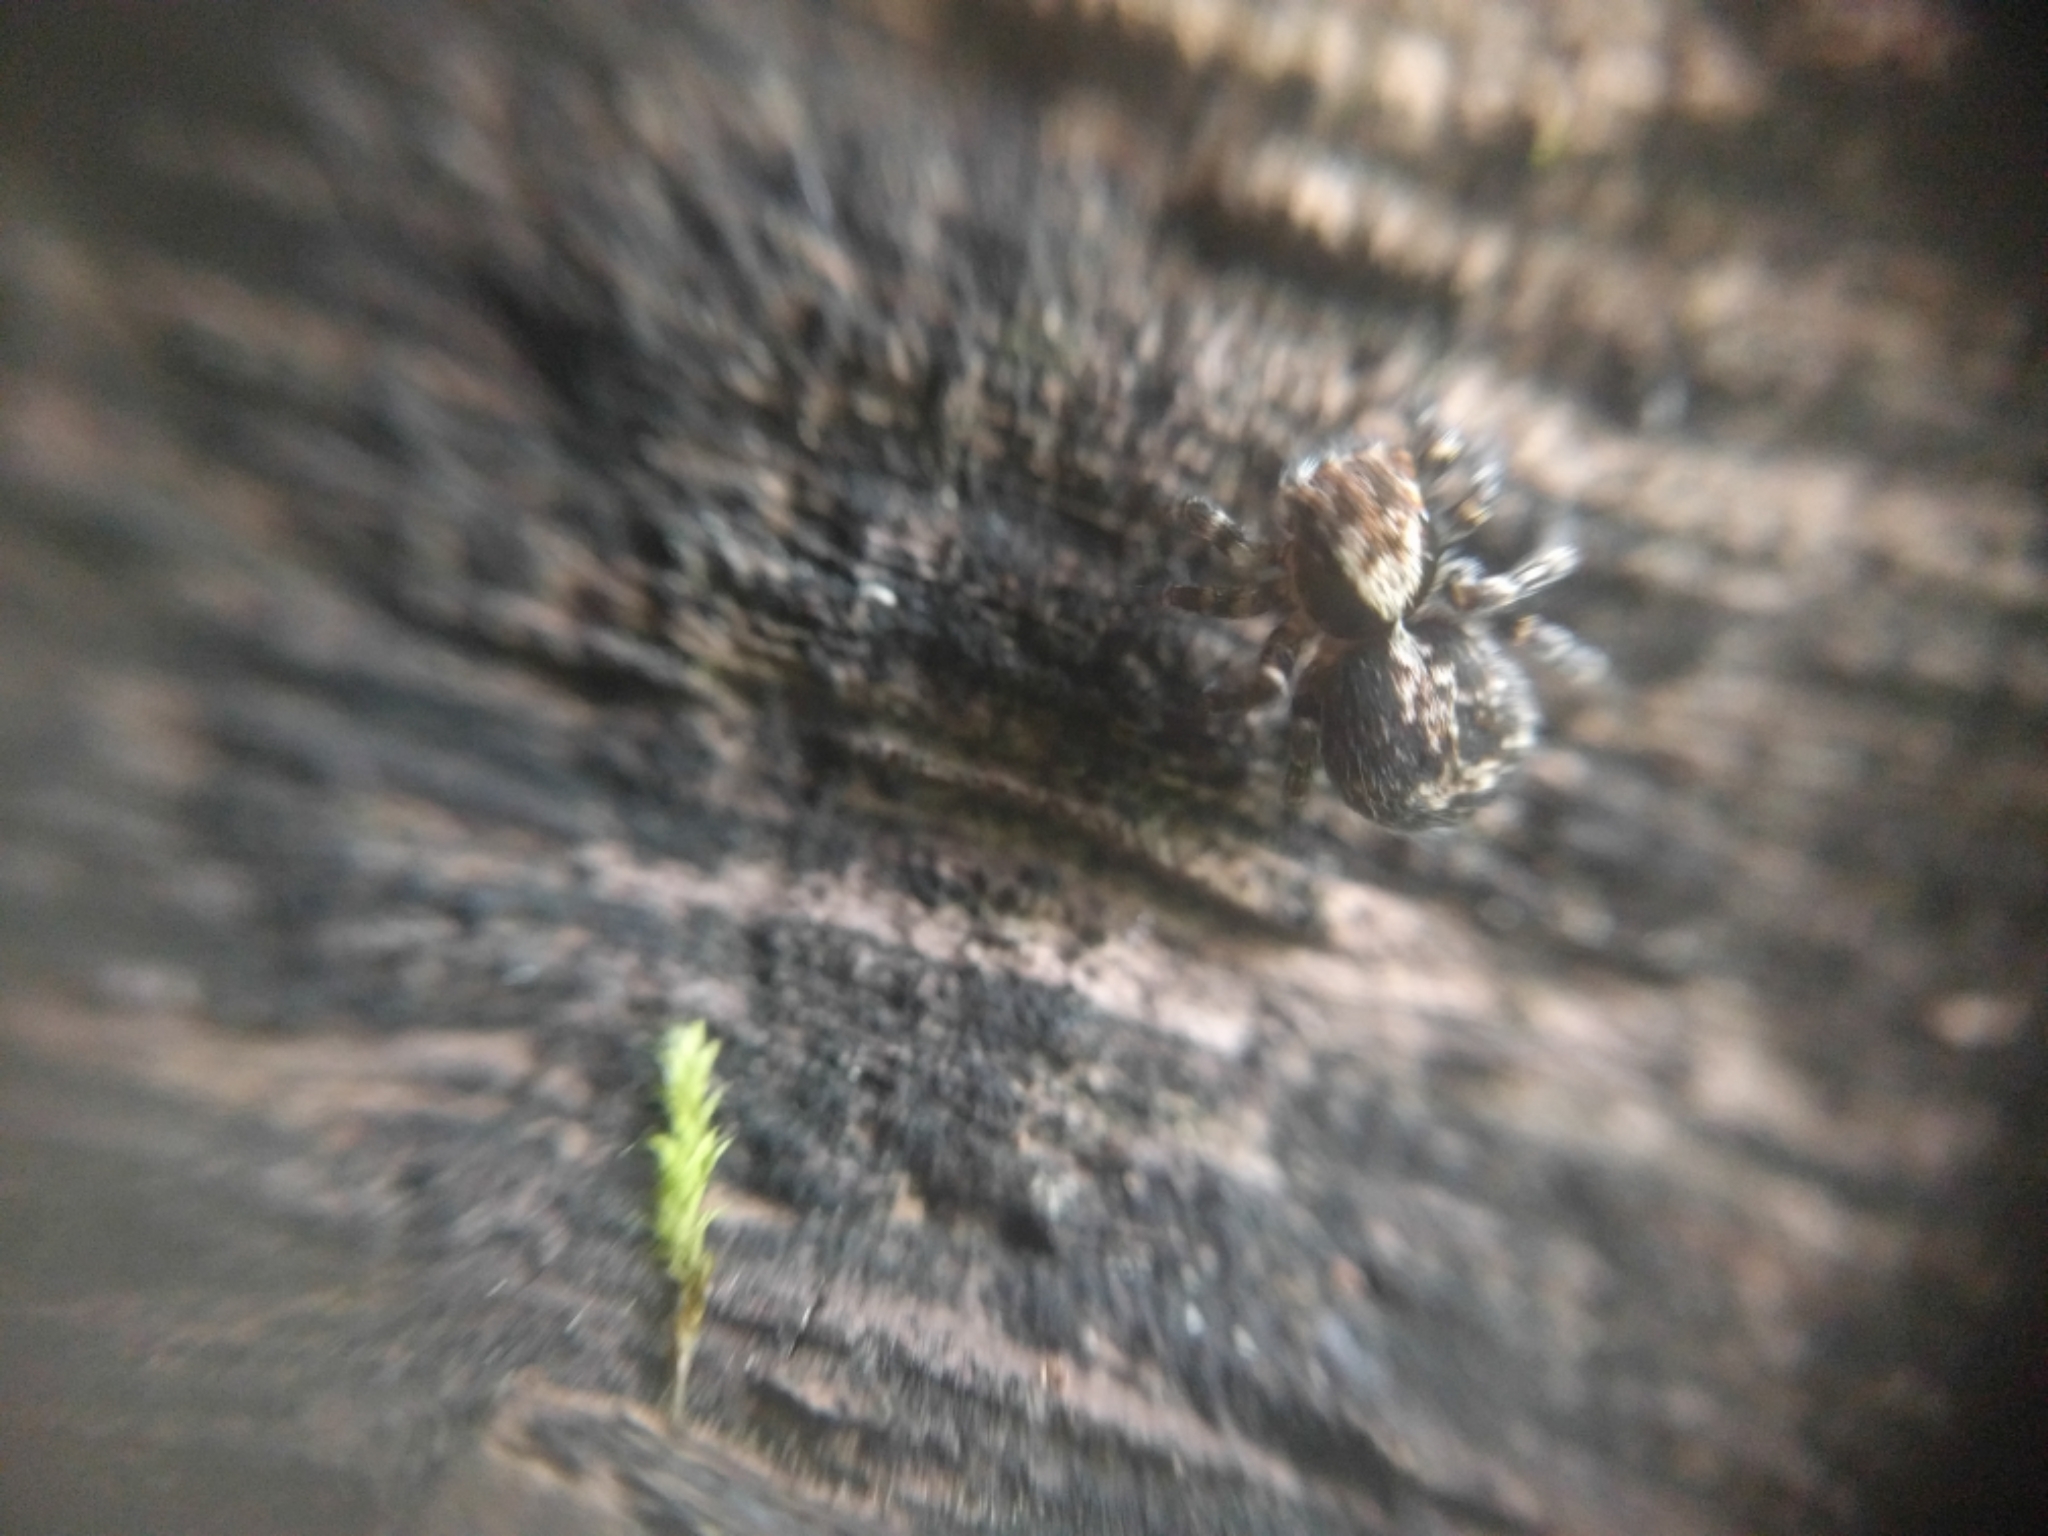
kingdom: Animalia
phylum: Arthropoda
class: Arachnida
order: Araneae
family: Salticidae
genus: Naphrys
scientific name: Naphrys pulex
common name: Flea jumping spider
